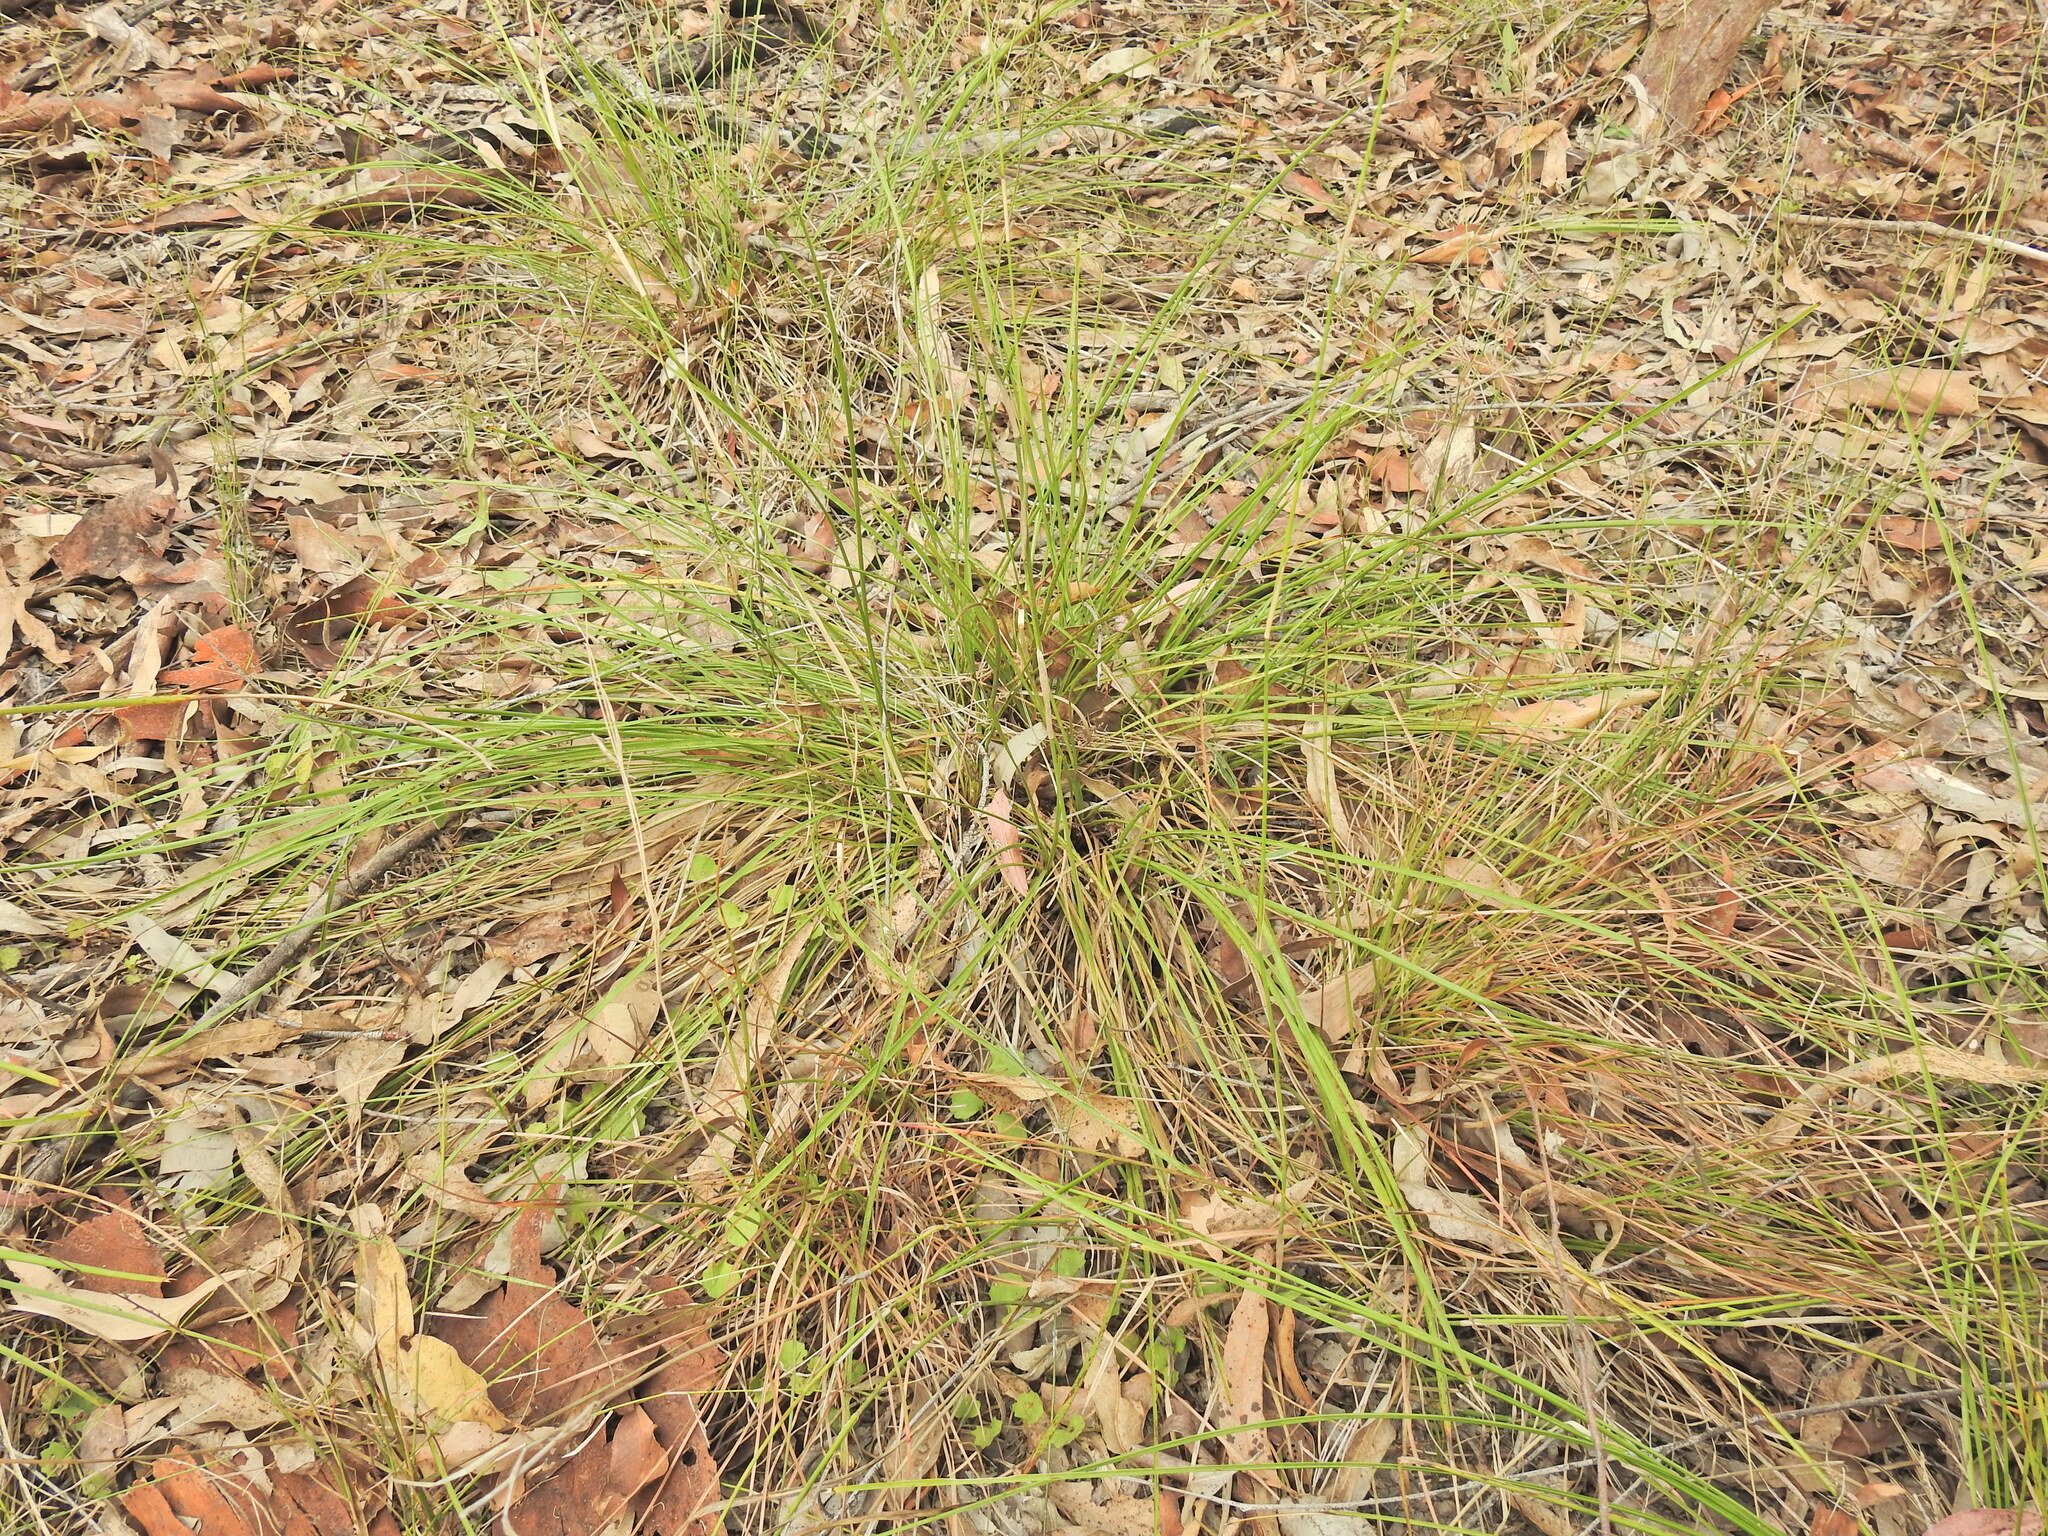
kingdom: Plantae
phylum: Tracheophyta
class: Liliopsida
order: Asparagales
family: Asparagaceae
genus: Lomandra
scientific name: Lomandra confertifolia
